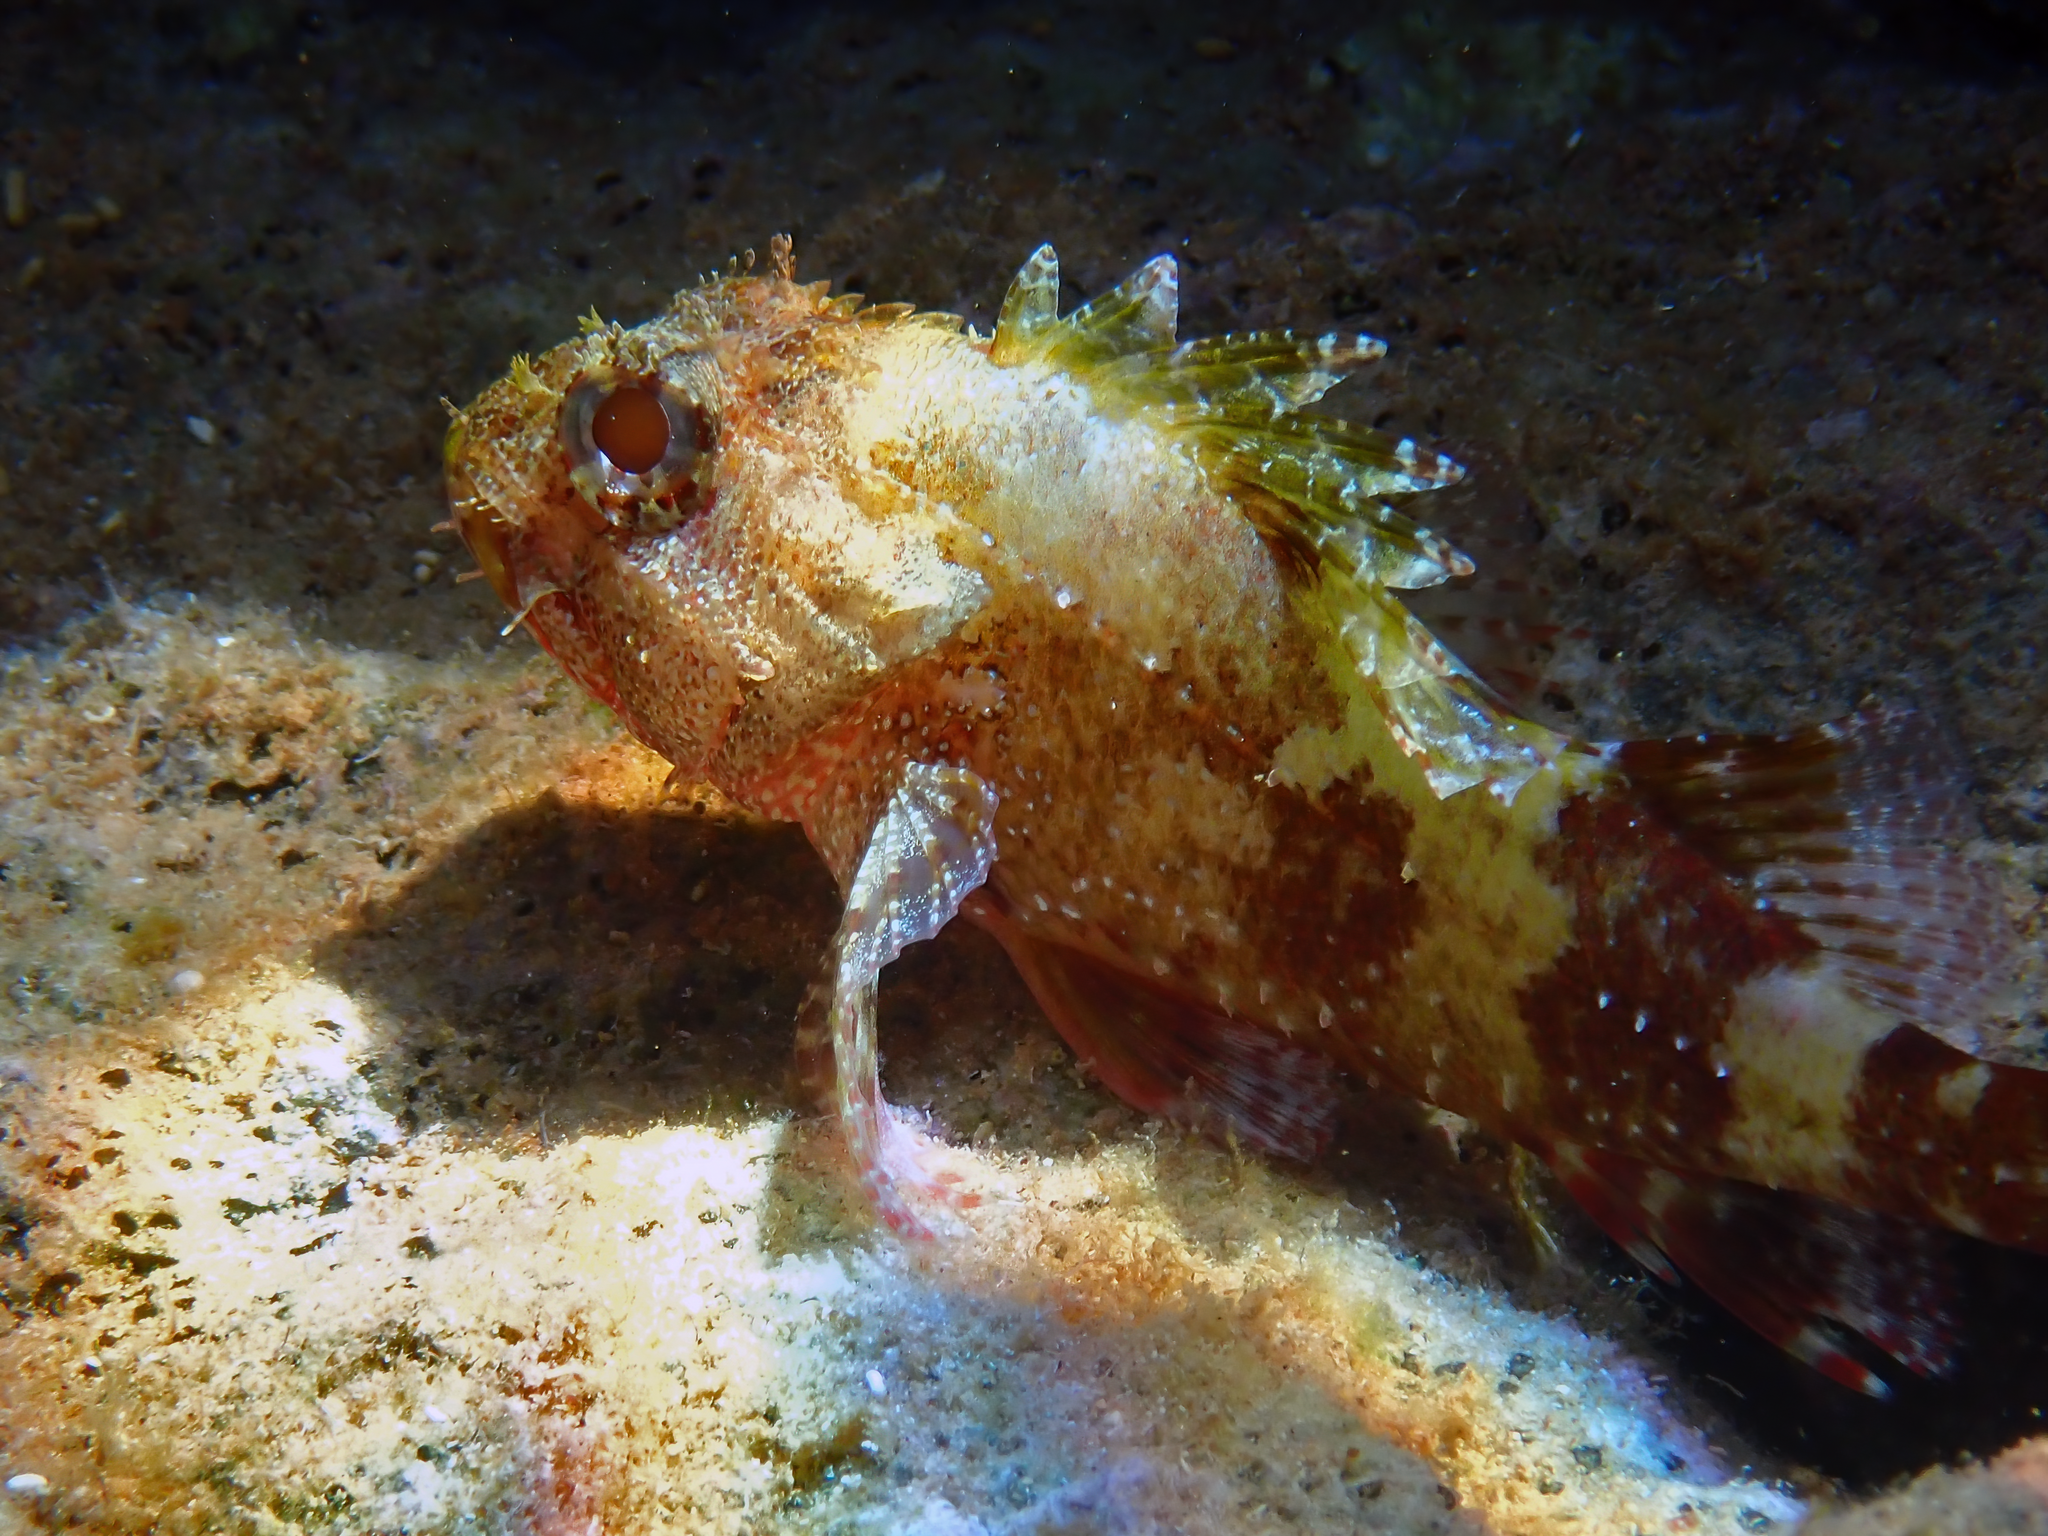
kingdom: Animalia
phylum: Chordata
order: Scorpaeniformes
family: Scorpaenidae
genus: Scorpaena
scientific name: Scorpaena maderensis
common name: Madeira rockfish
